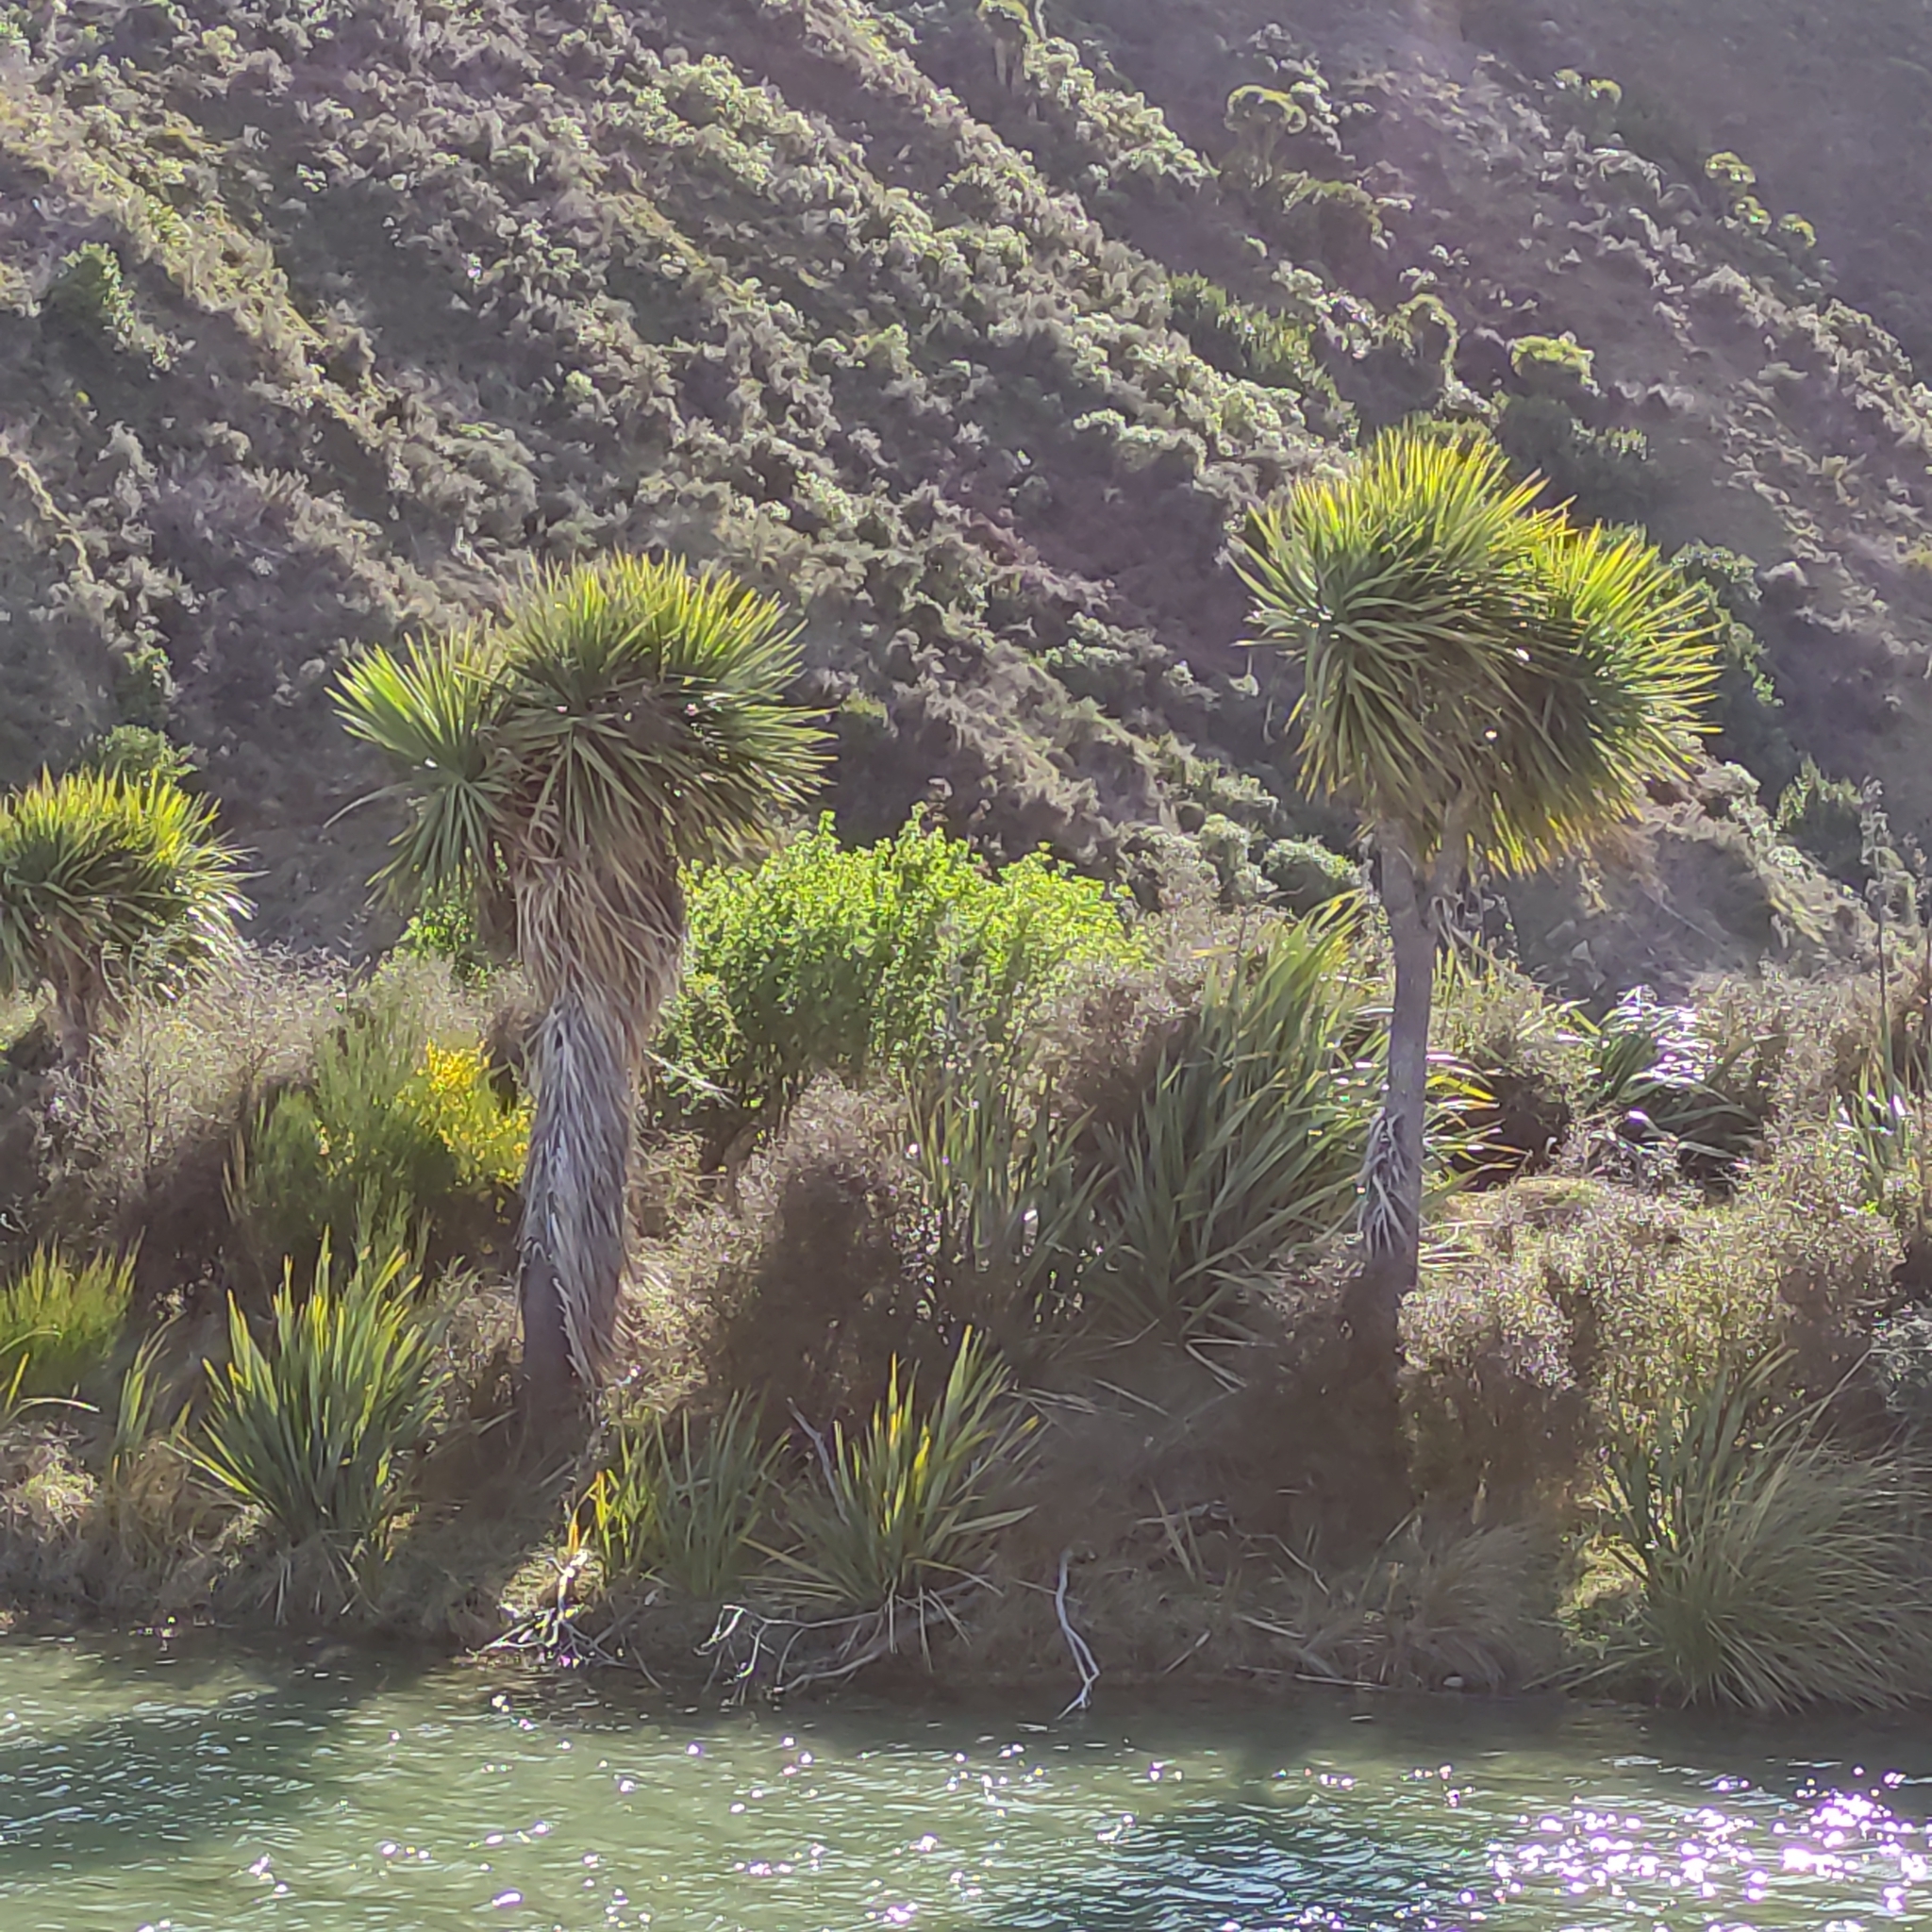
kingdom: Plantae
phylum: Tracheophyta
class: Liliopsida
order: Asparagales
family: Asparagaceae
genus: Cordyline
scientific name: Cordyline australis
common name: Cabbage-palm
